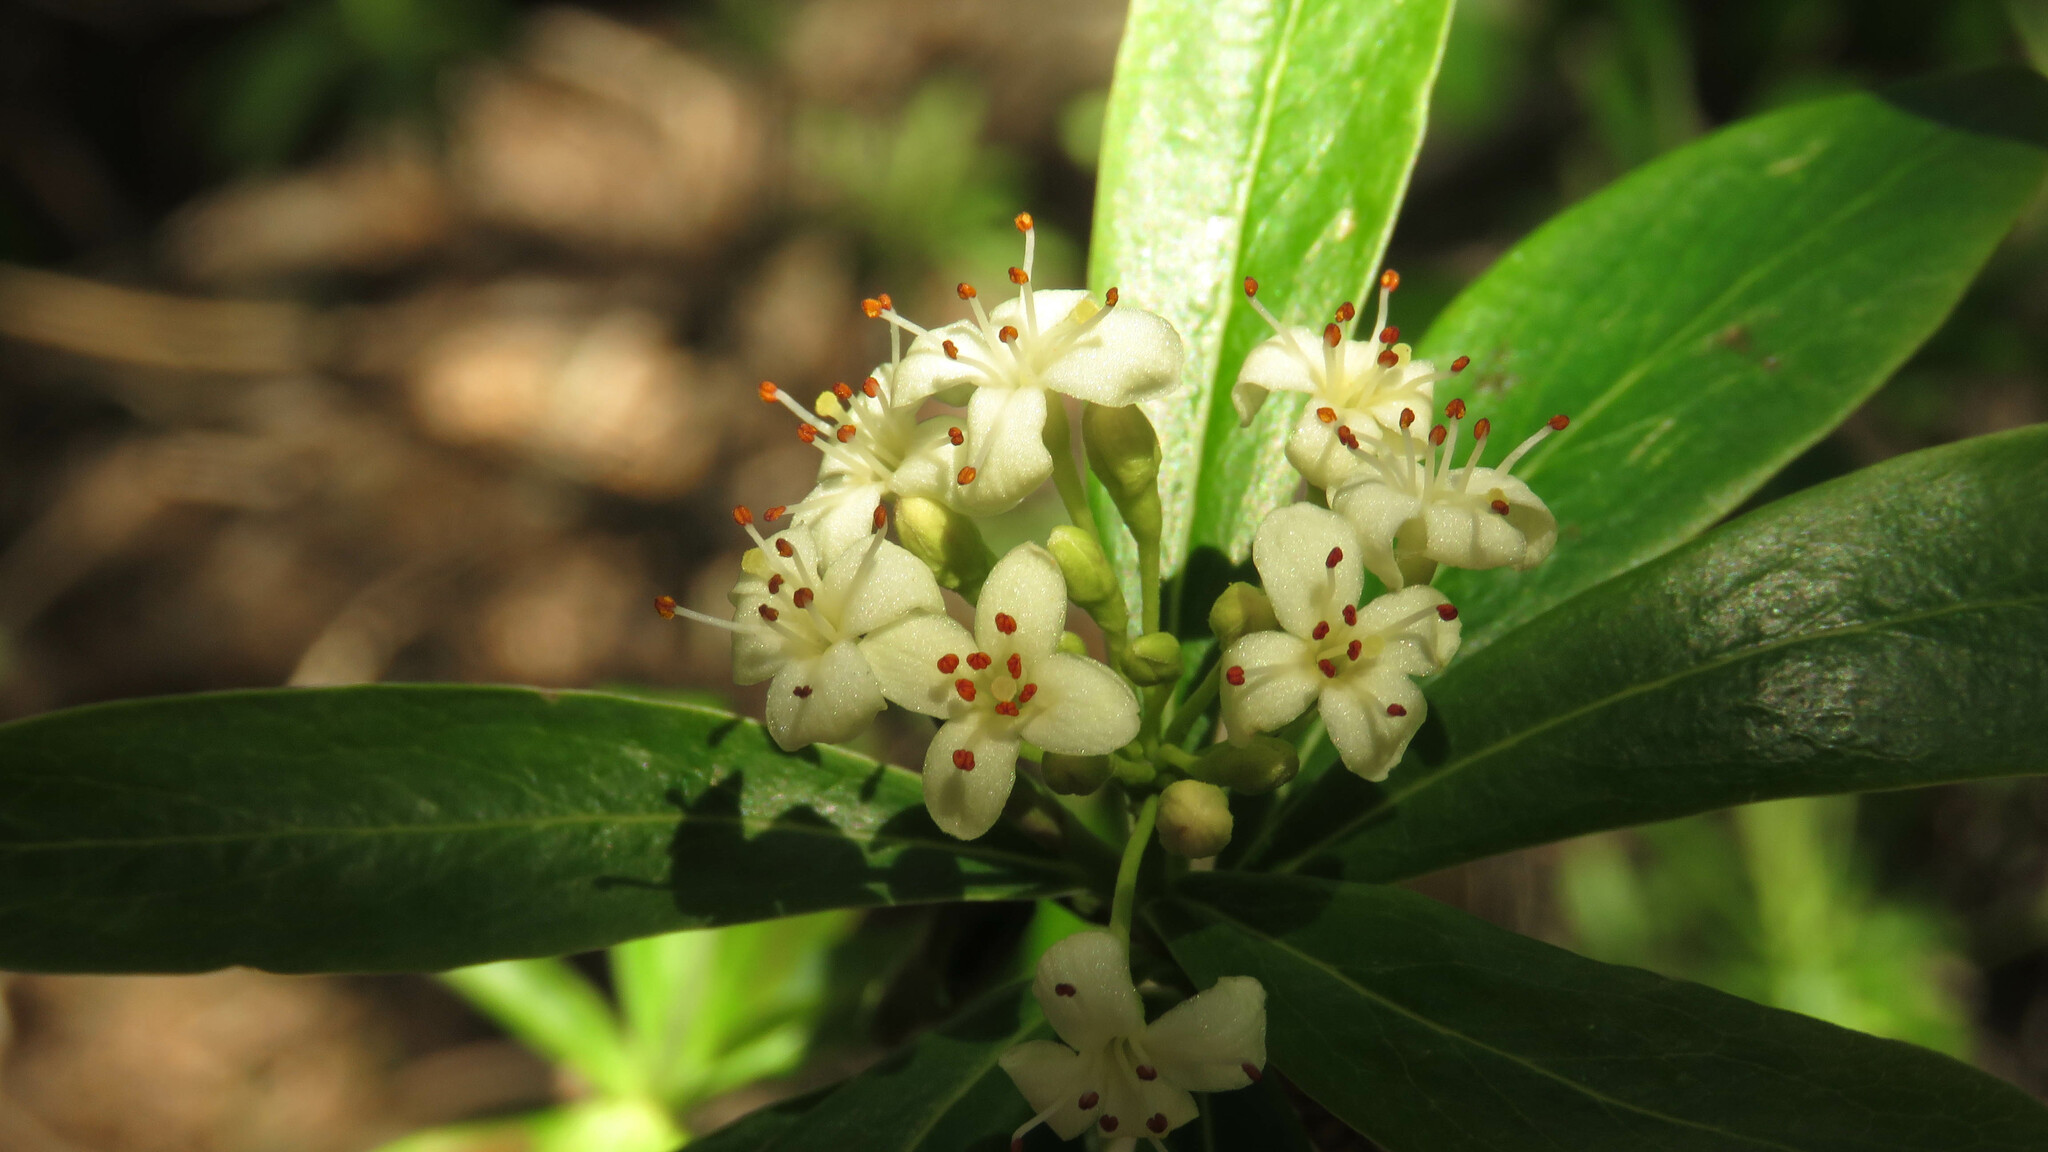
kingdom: Plantae
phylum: Tracheophyta
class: Magnoliopsida
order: Malvales
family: Thymelaeaceae
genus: Ovidia
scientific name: Ovidia andina
